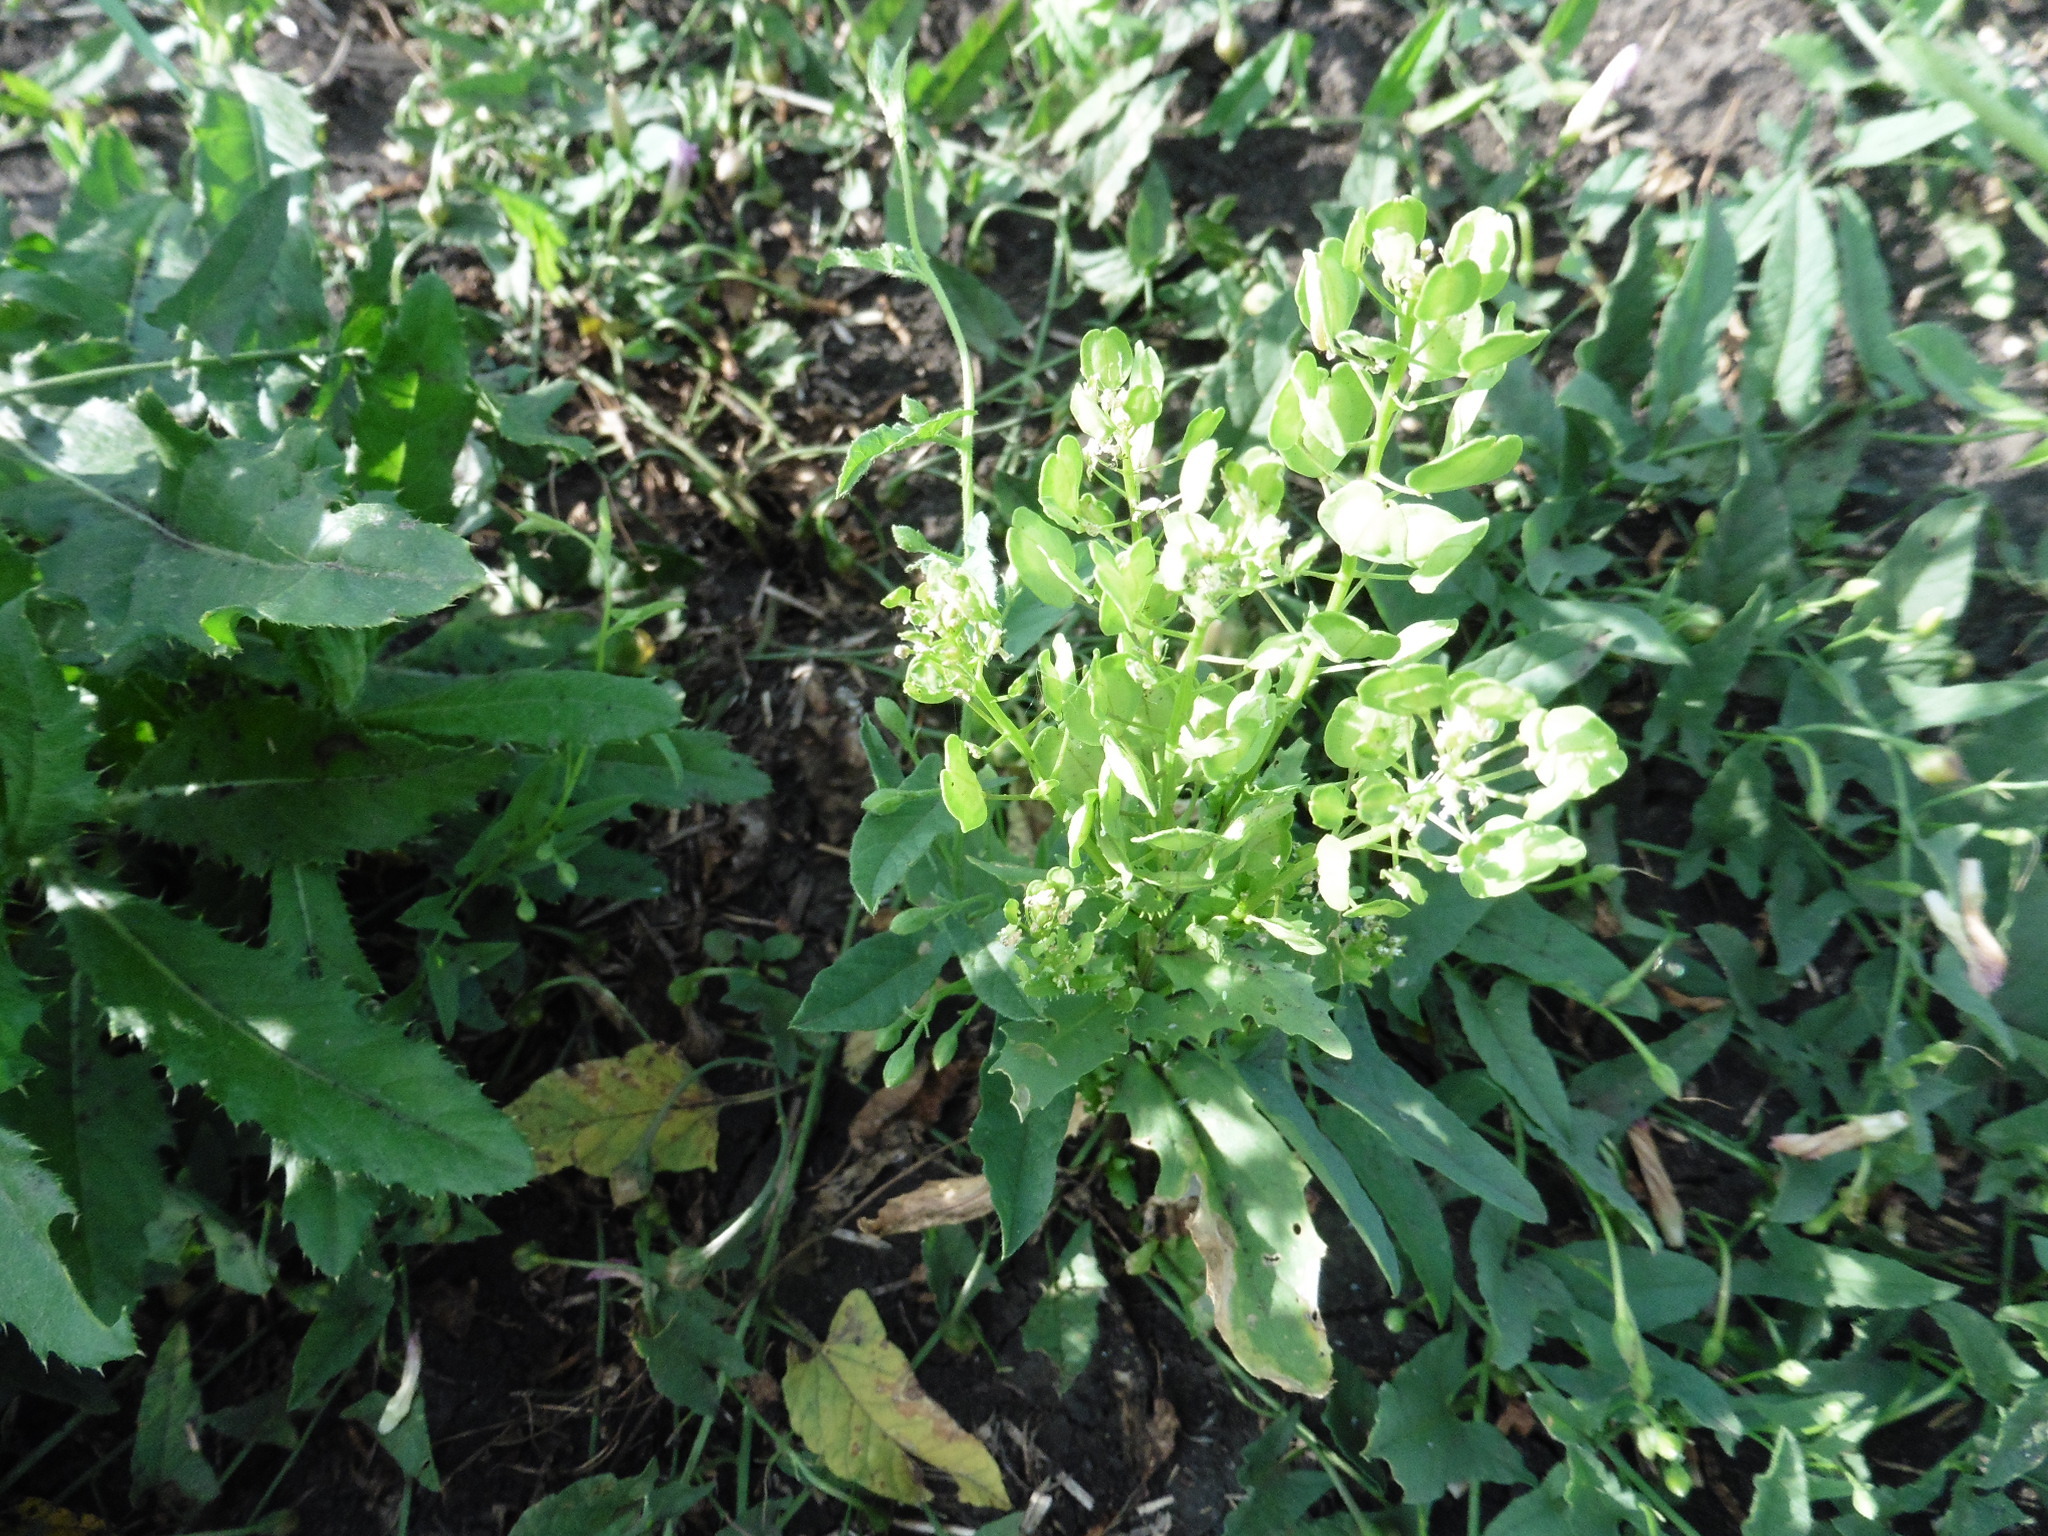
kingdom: Plantae
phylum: Tracheophyta
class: Magnoliopsida
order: Brassicales
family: Brassicaceae
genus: Thlaspi
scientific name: Thlaspi arvense
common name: Field pennycress
